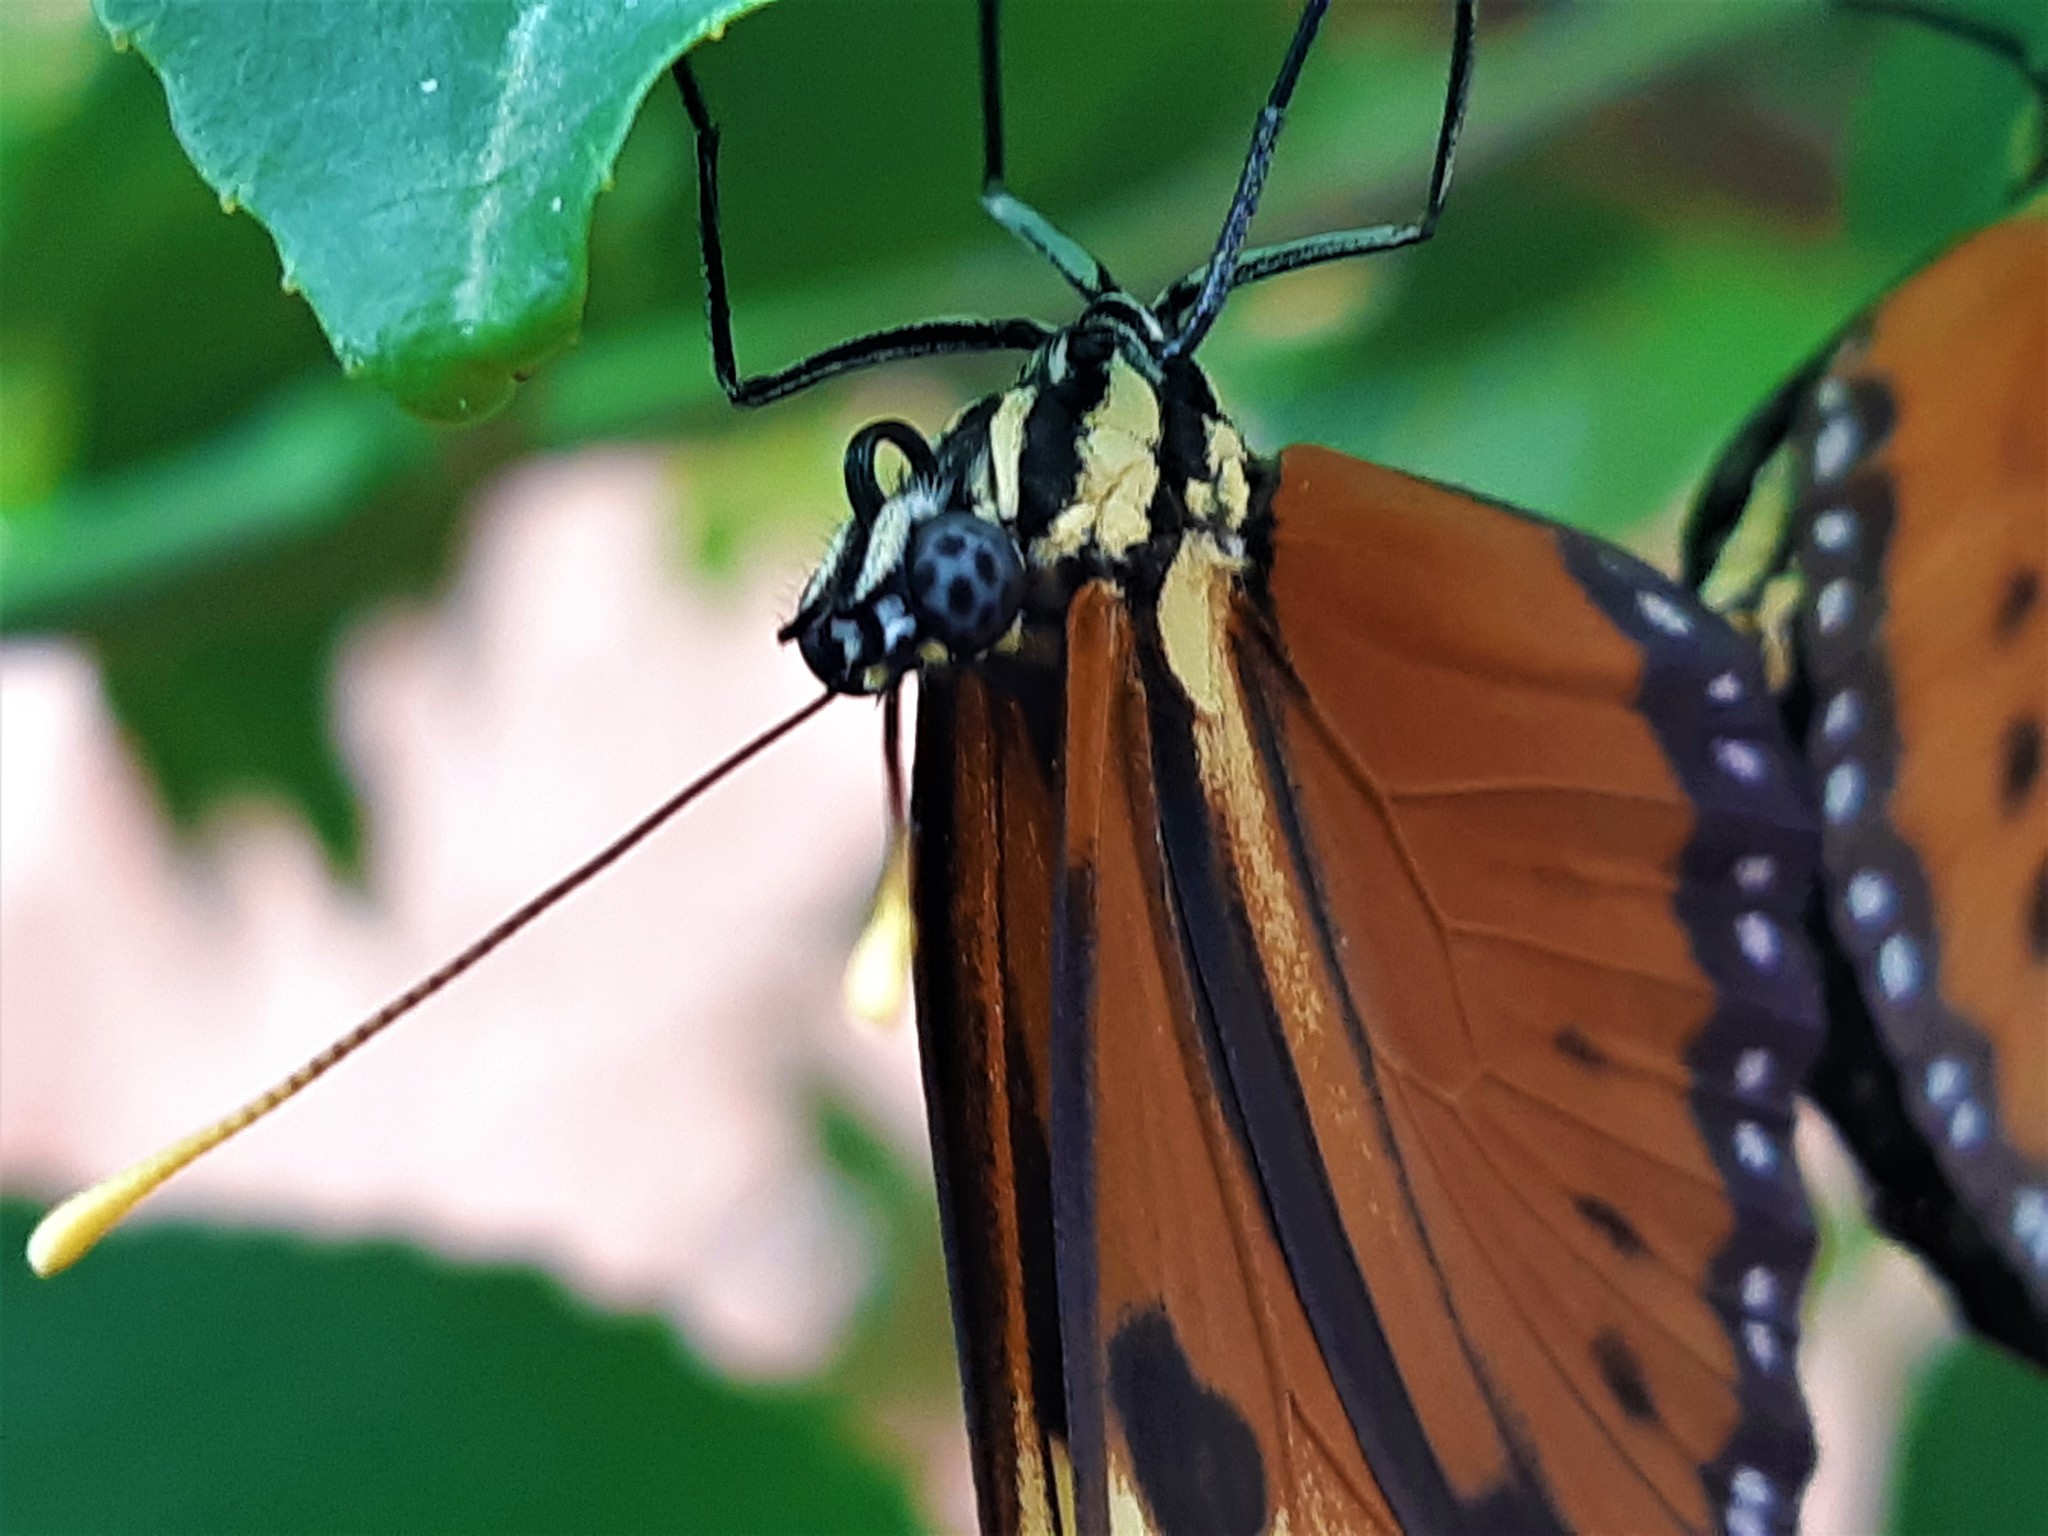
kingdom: Animalia
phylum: Arthropoda
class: Insecta
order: Lepidoptera
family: Nymphalidae
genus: Eueides
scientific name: Eueides isabella
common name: Isabella's longwing
